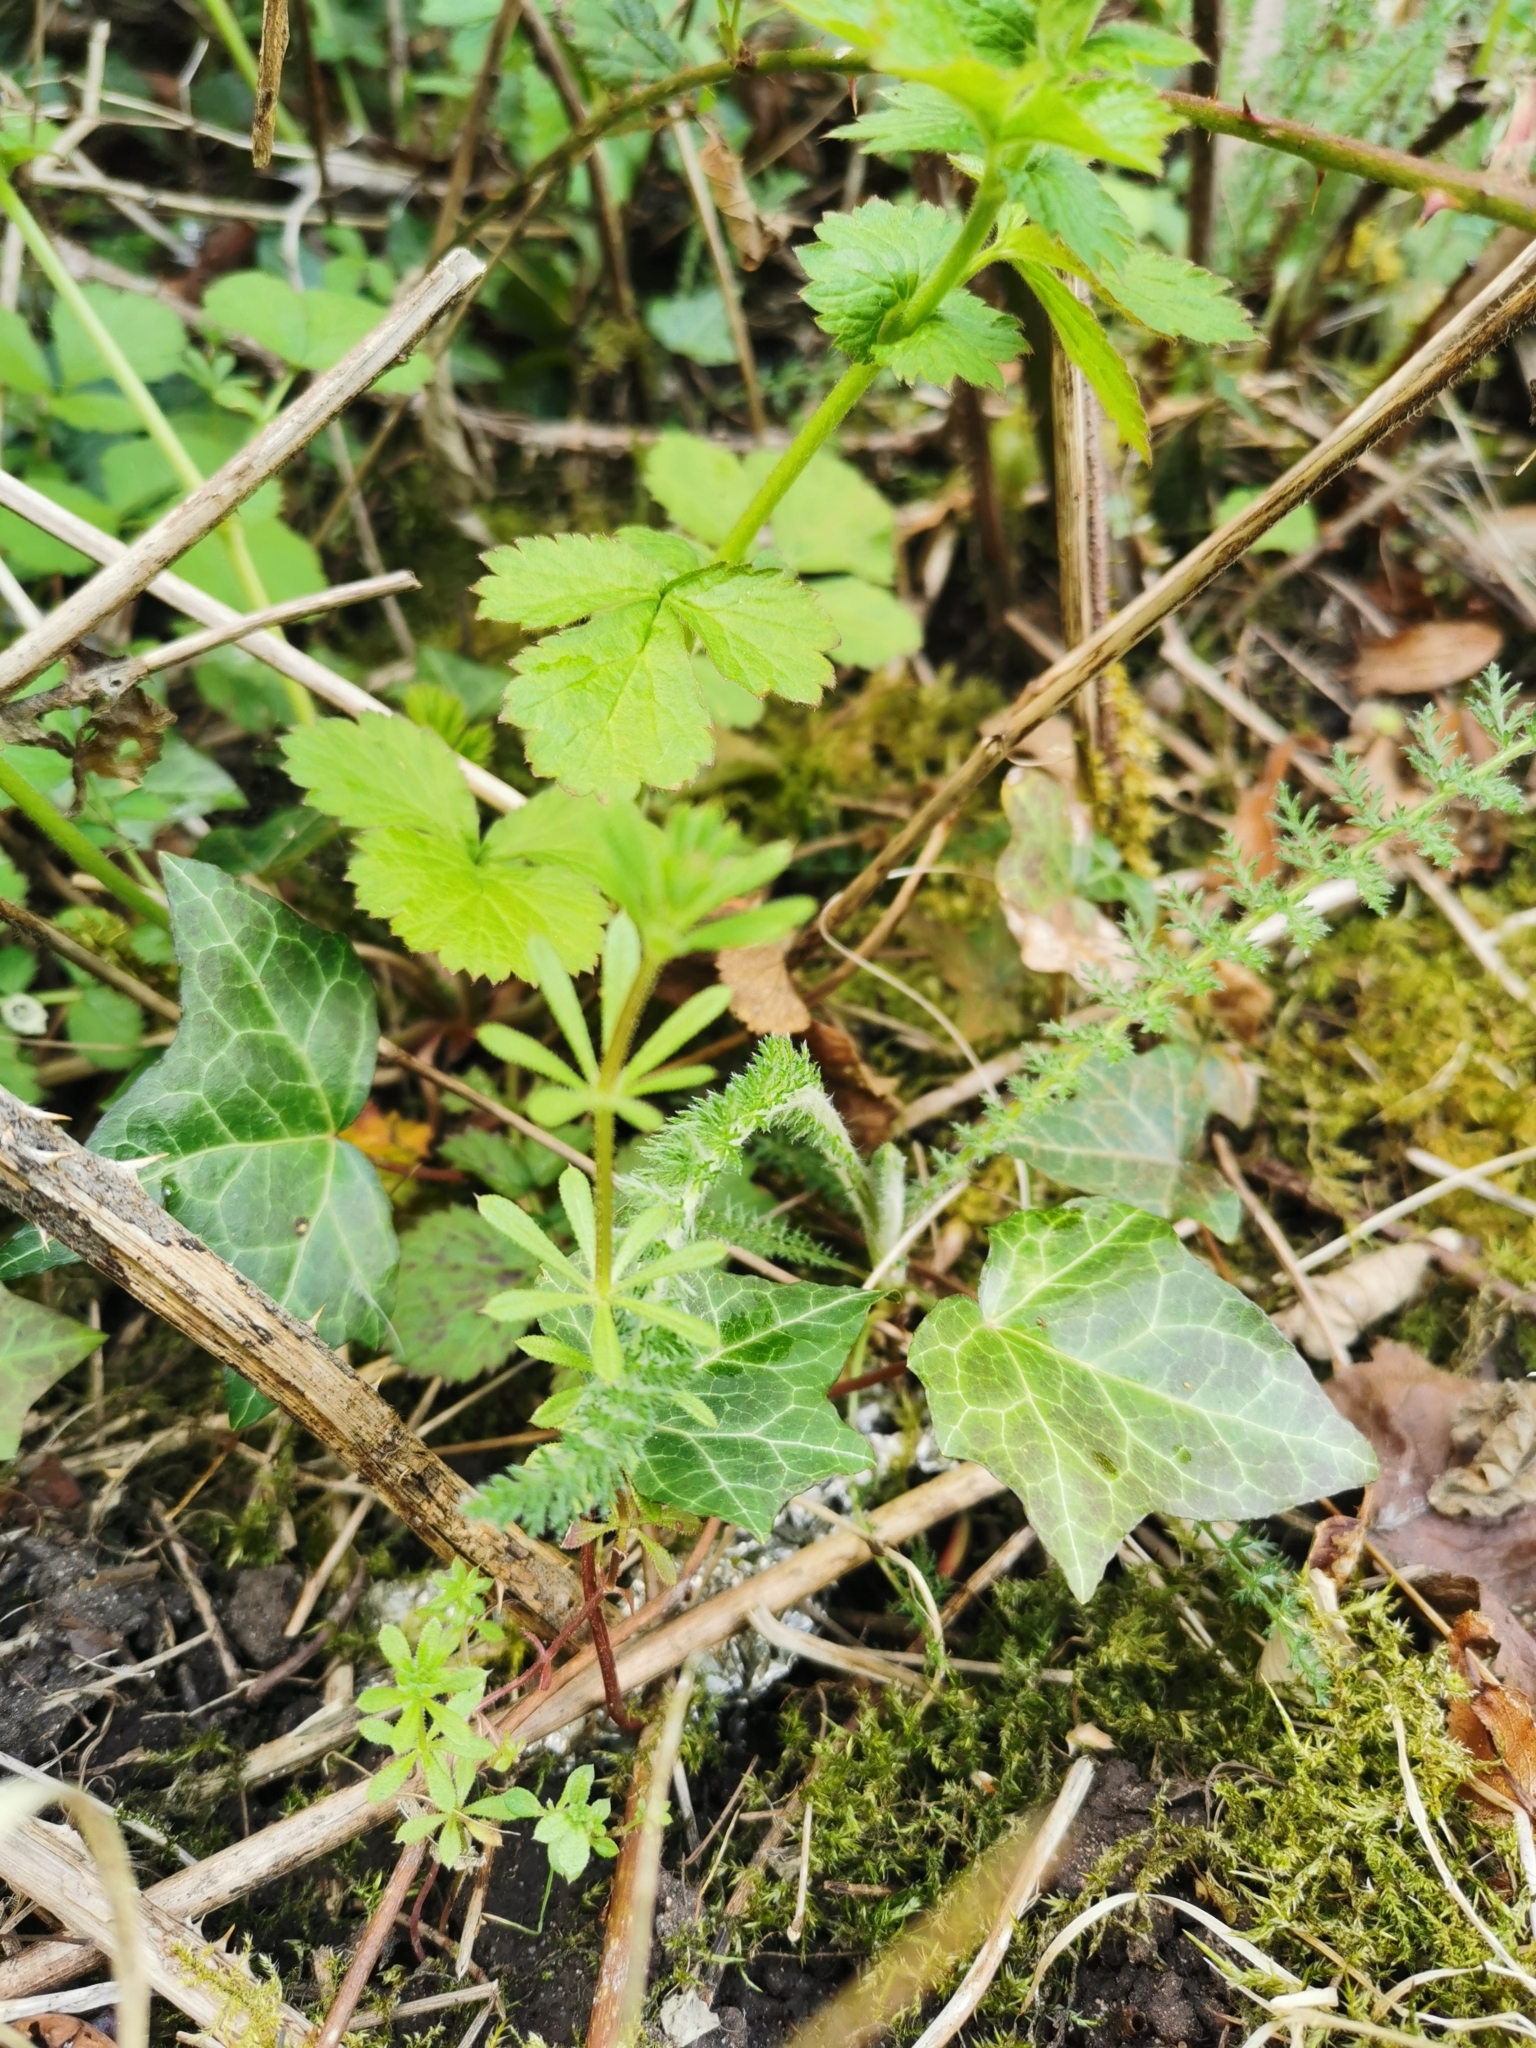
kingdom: Plantae
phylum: Tracheophyta
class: Magnoliopsida
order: Gentianales
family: Rubiaceae
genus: Galium
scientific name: Galium aparine
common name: Cleavers
